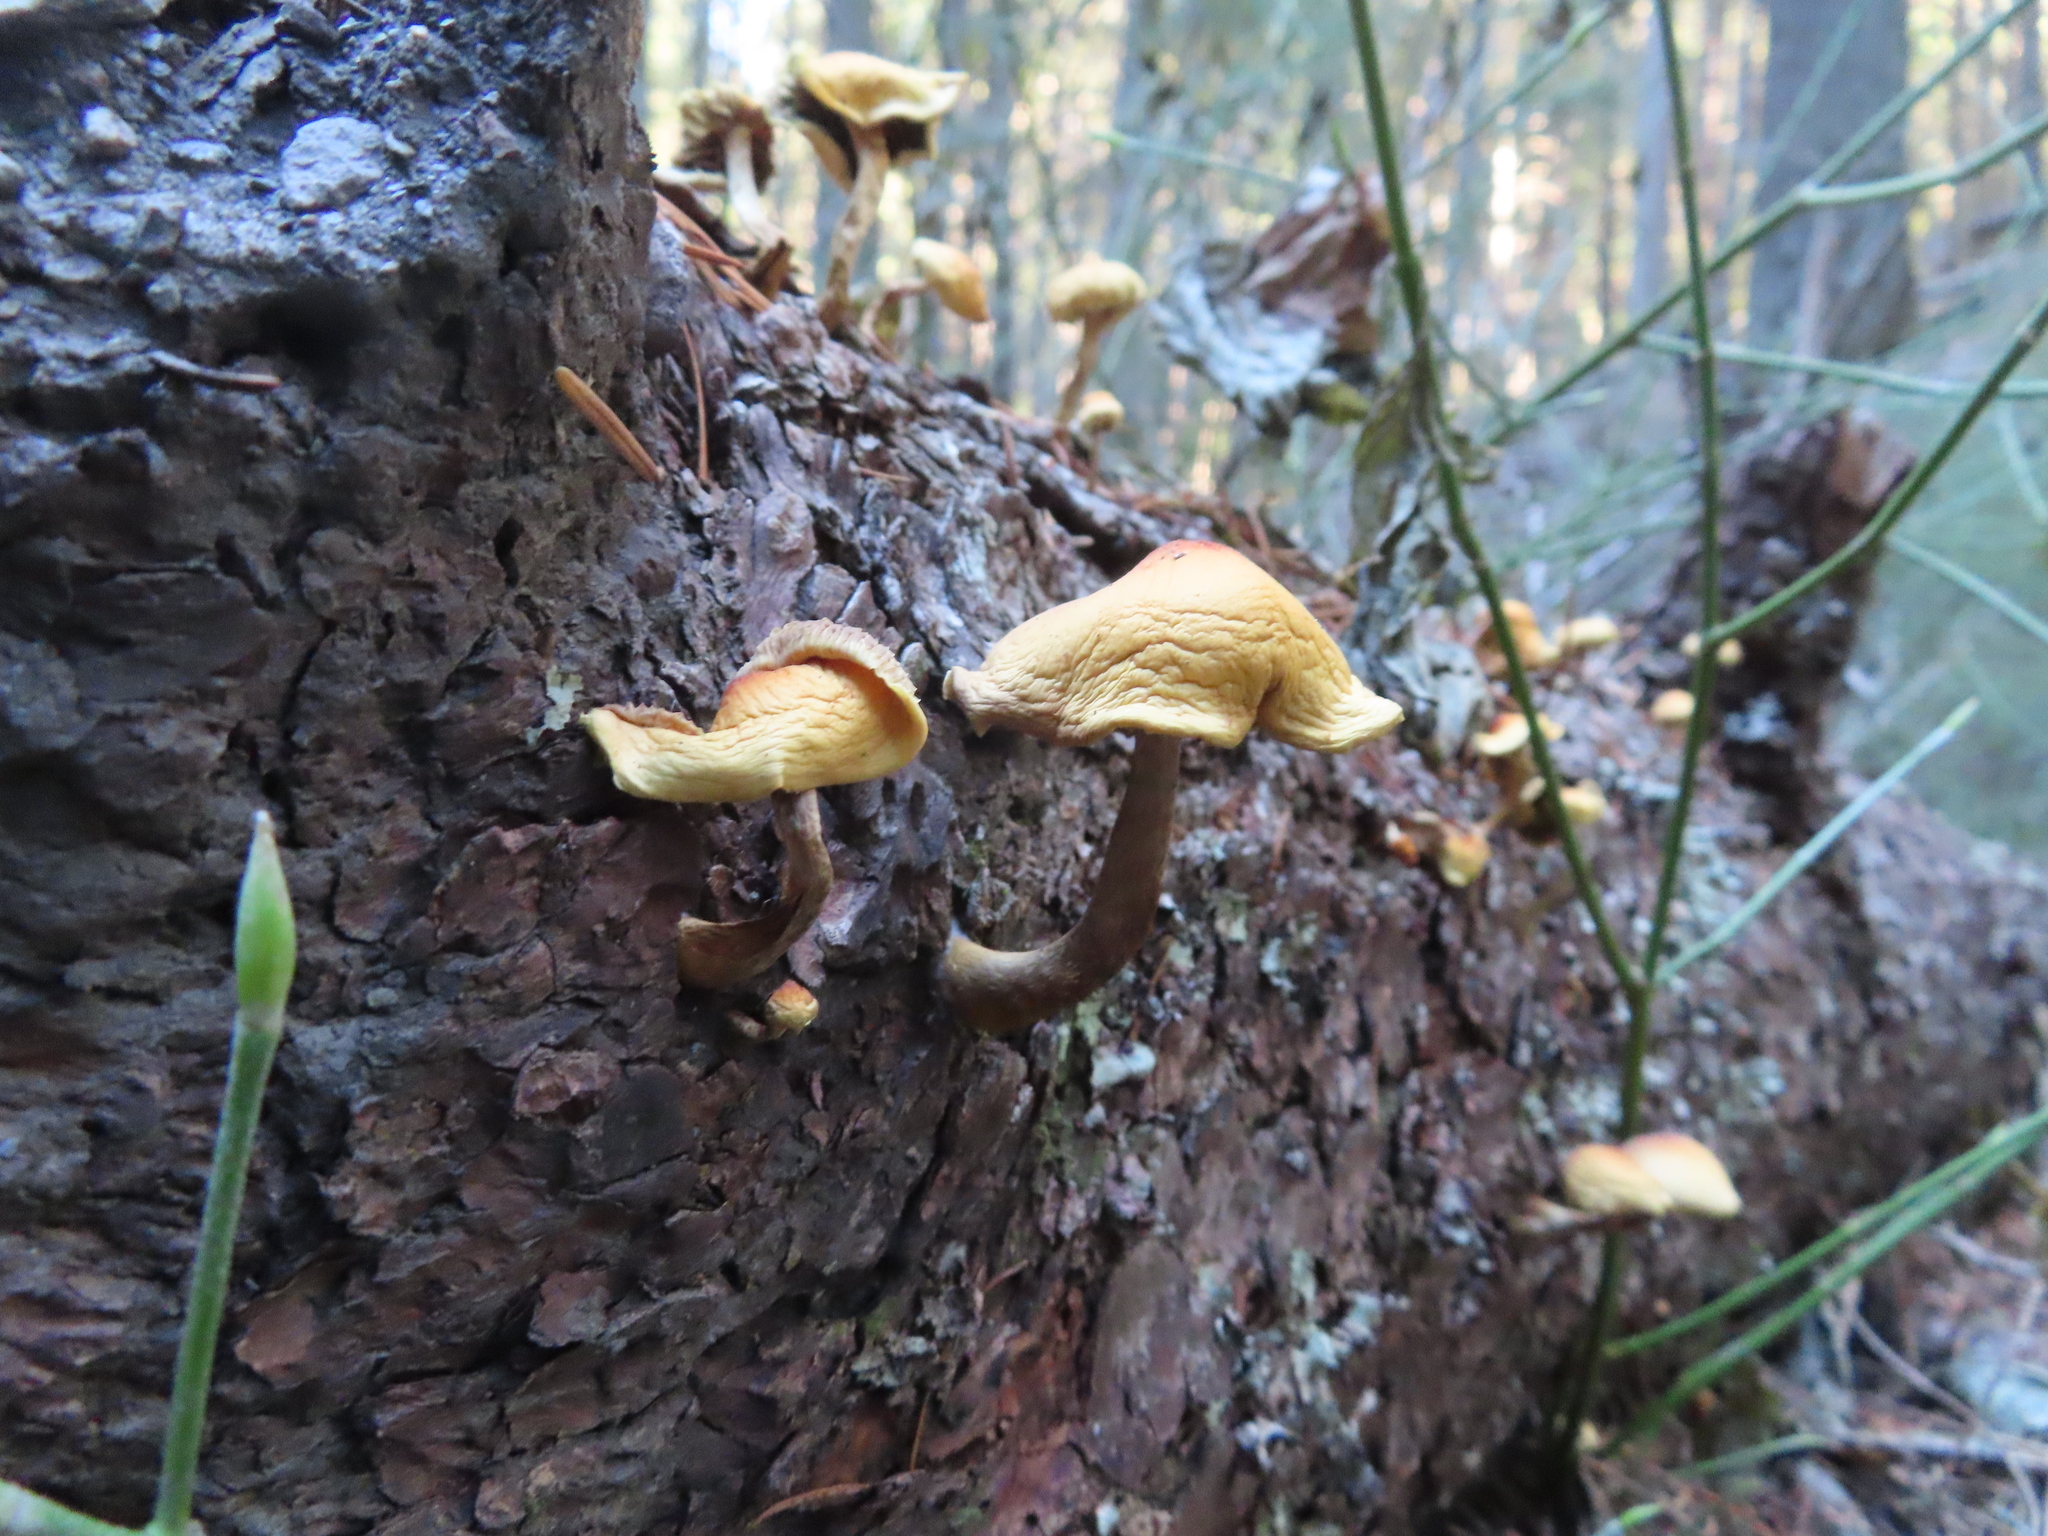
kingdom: Fungi
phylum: Basidiomycota
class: Agaricomycetes
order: Agaricales
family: Strophariaceae
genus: Hypholoma
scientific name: Hypholoma capnoides
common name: Conifer tuft
